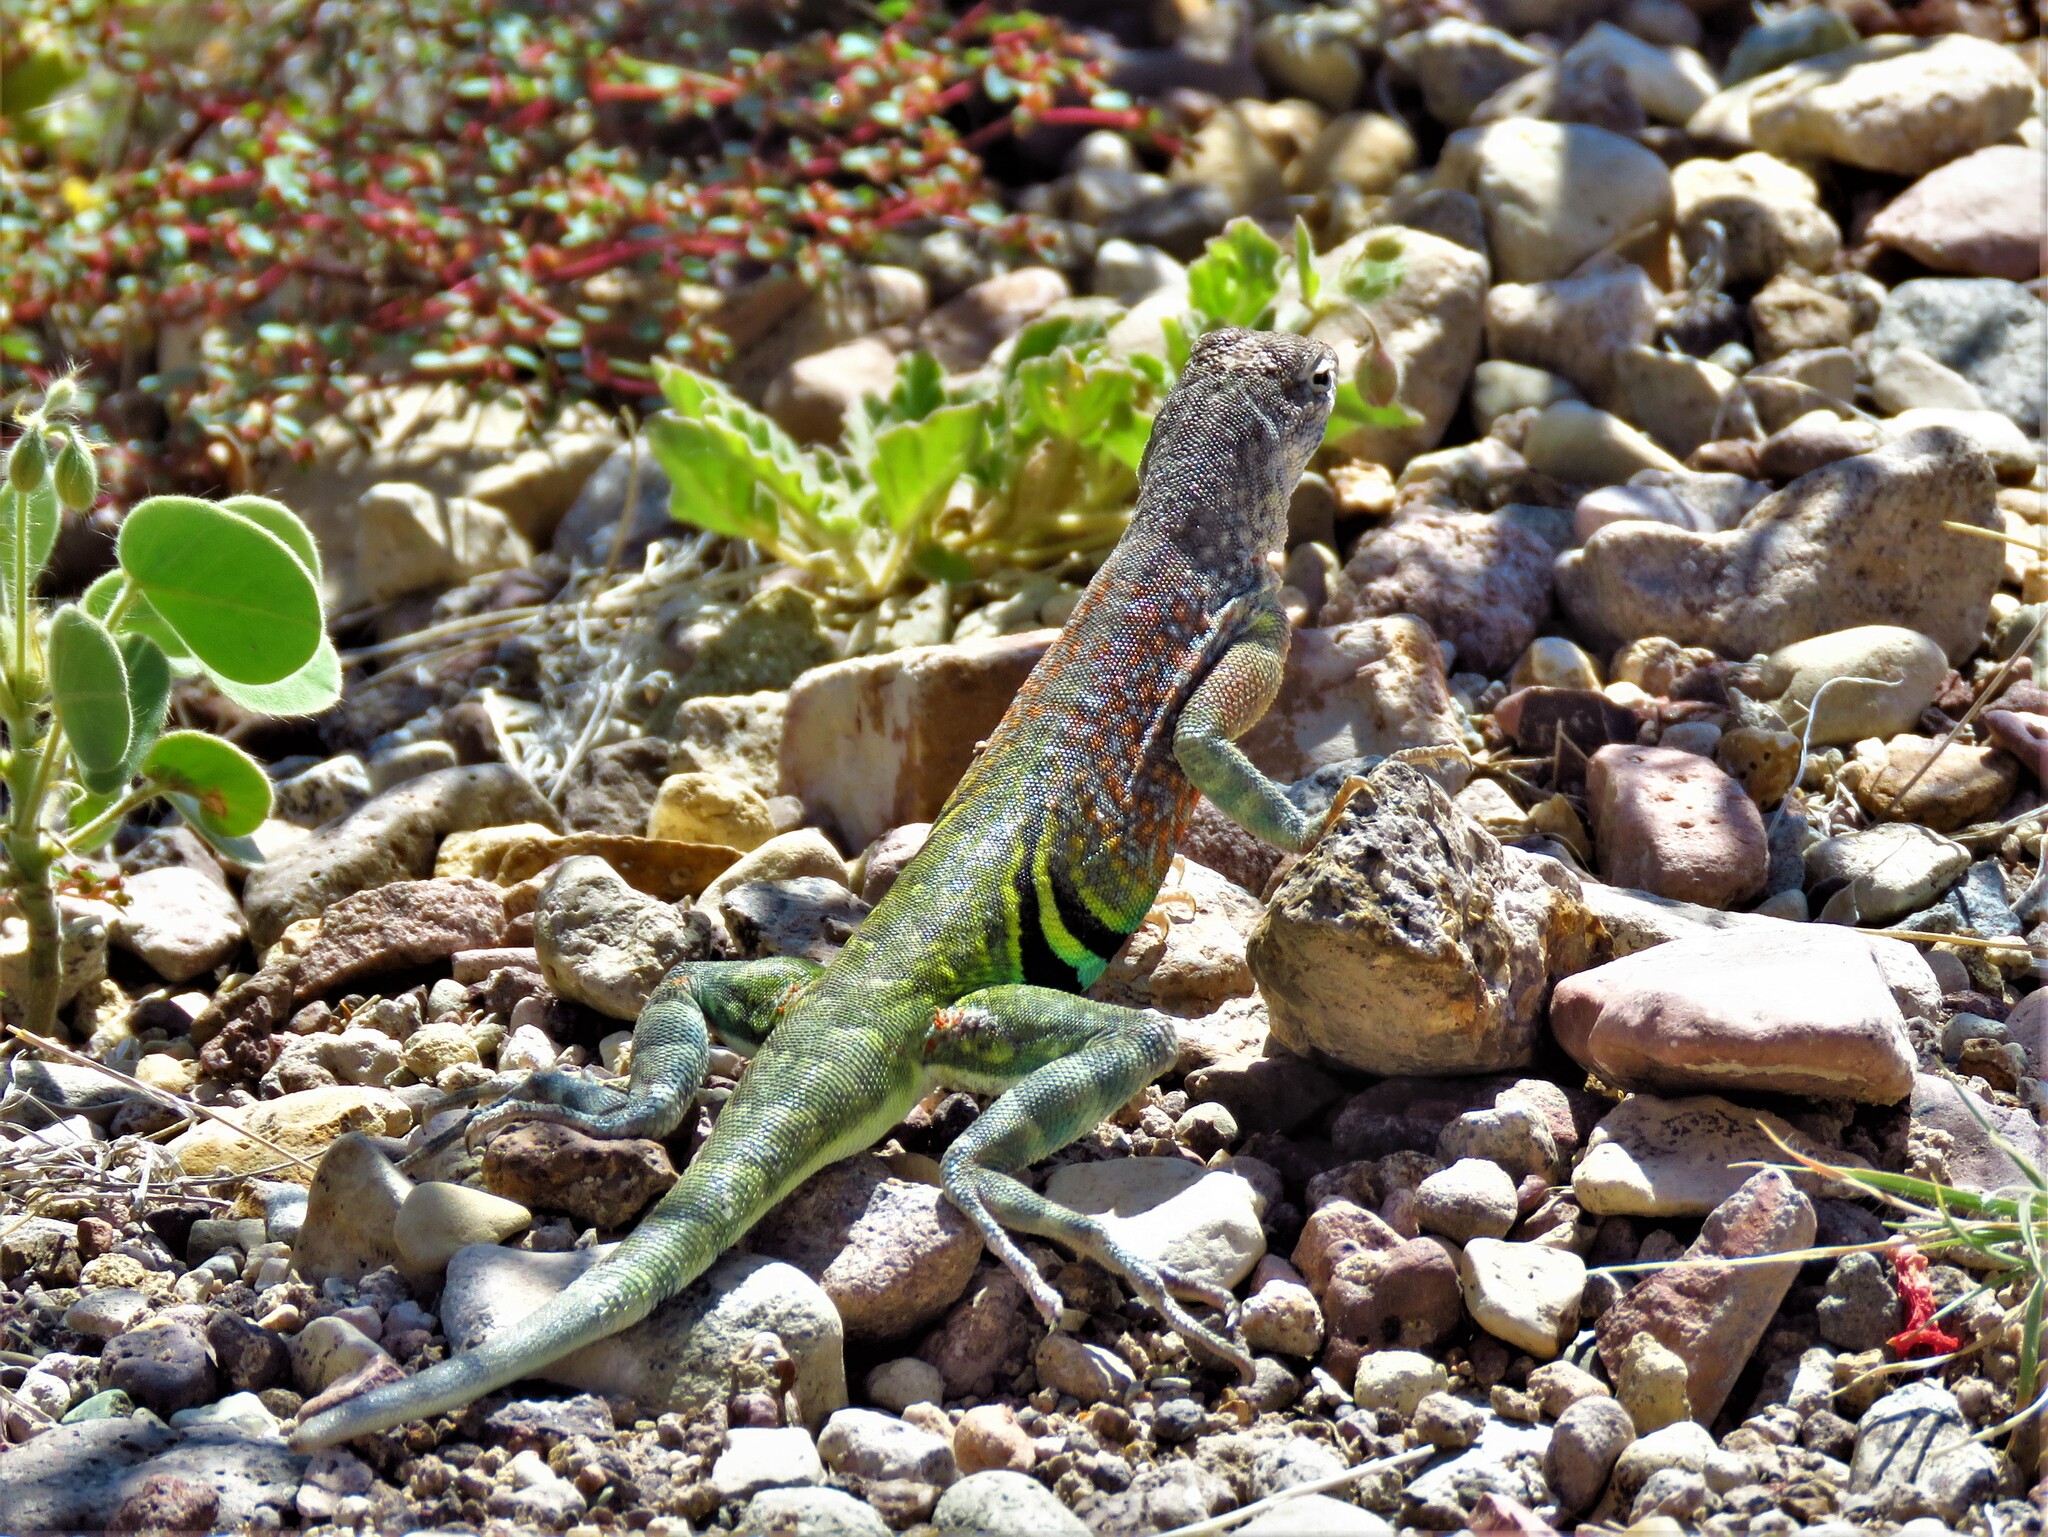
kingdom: Animalia
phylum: Chordata
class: Squamata
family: Phrynosomatidae
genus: Cophosaurus
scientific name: Cophosaurus texanus
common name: Greater earless lizard
